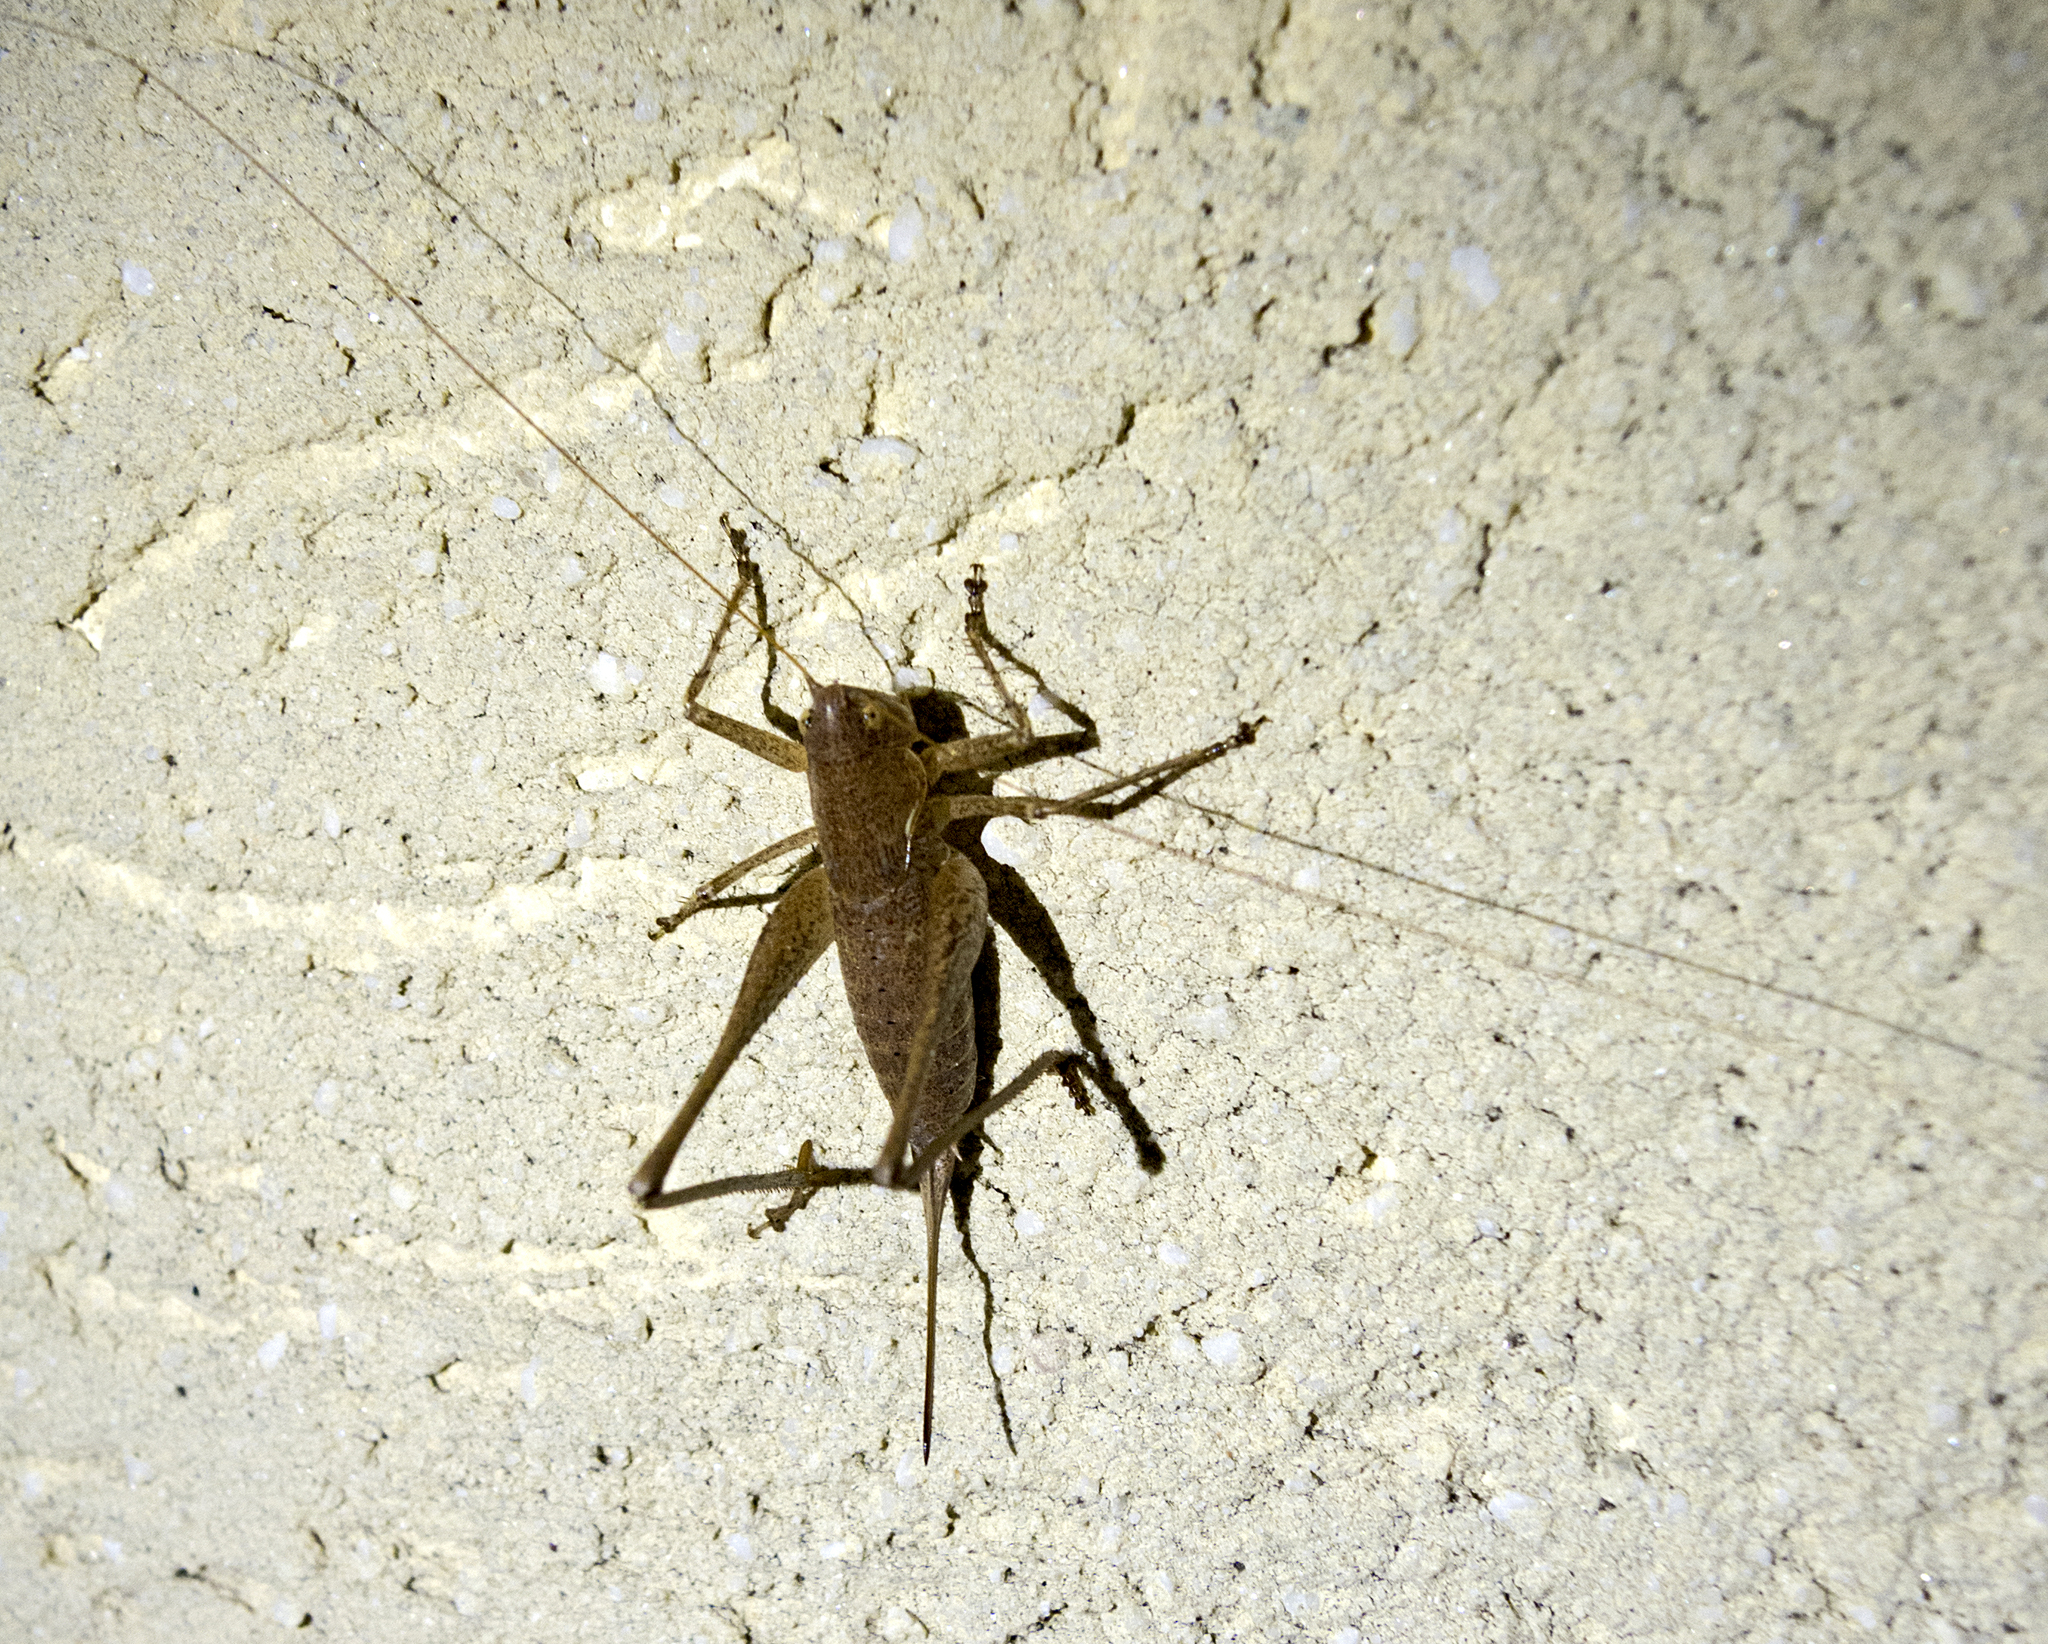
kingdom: Animalia
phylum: Arthropoda
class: Insecta
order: Orthoptera
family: Tettigoniidae
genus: Rhacocleis
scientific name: Rhacocleis germanica
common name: Mediterranean bush-cricket
